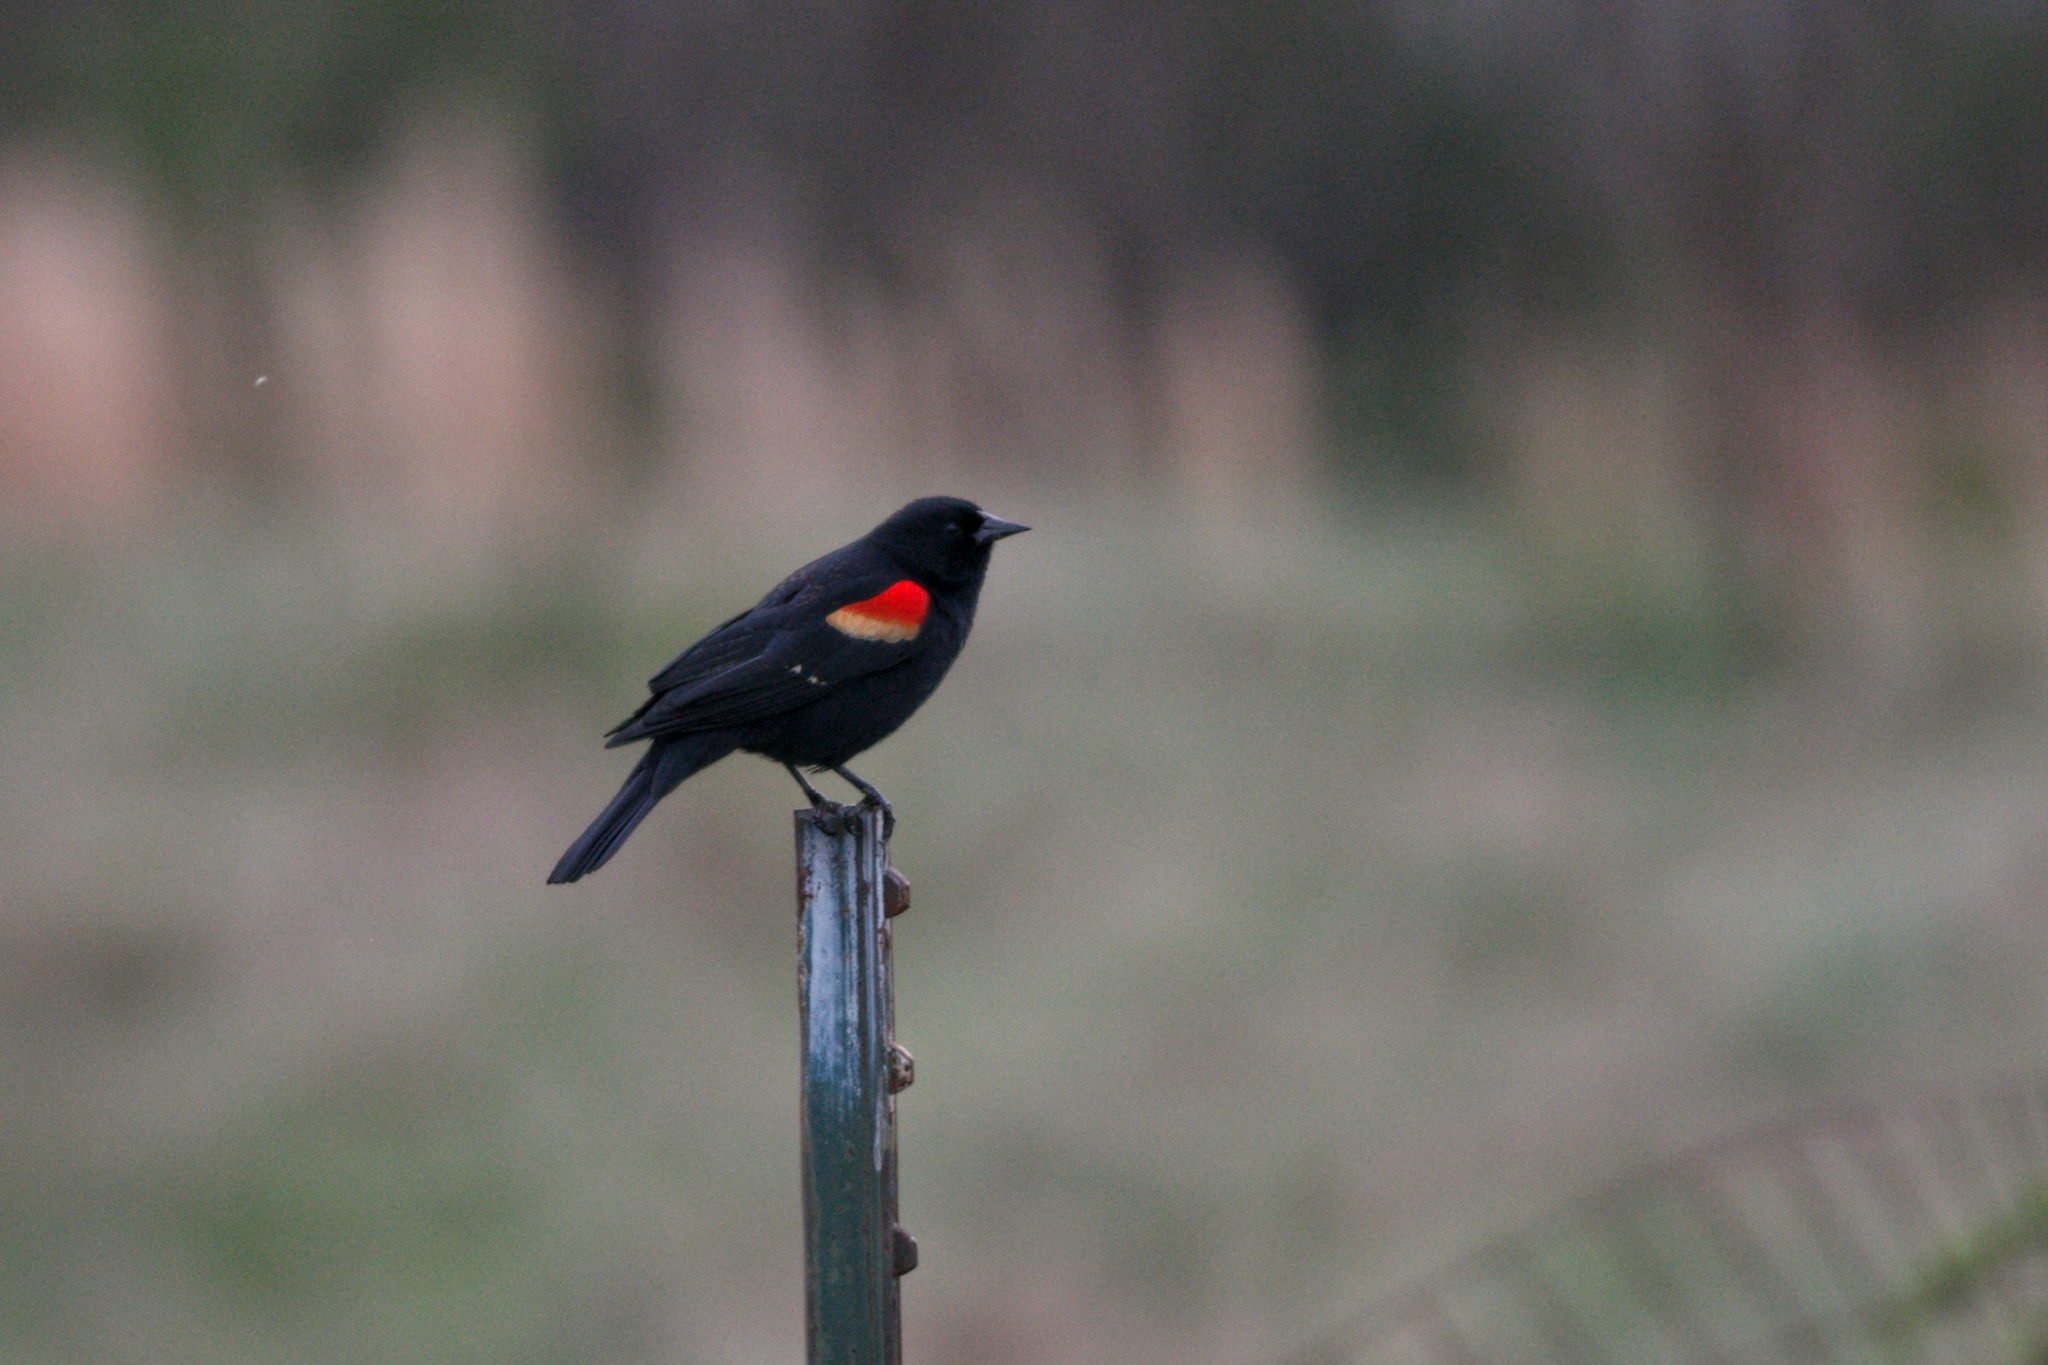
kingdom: Animalia
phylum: Chordata
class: Aves
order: Passeriformes
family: Icteridae
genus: Agelaius
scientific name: Agelaius phoeniceus
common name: Red-winged blackbird
